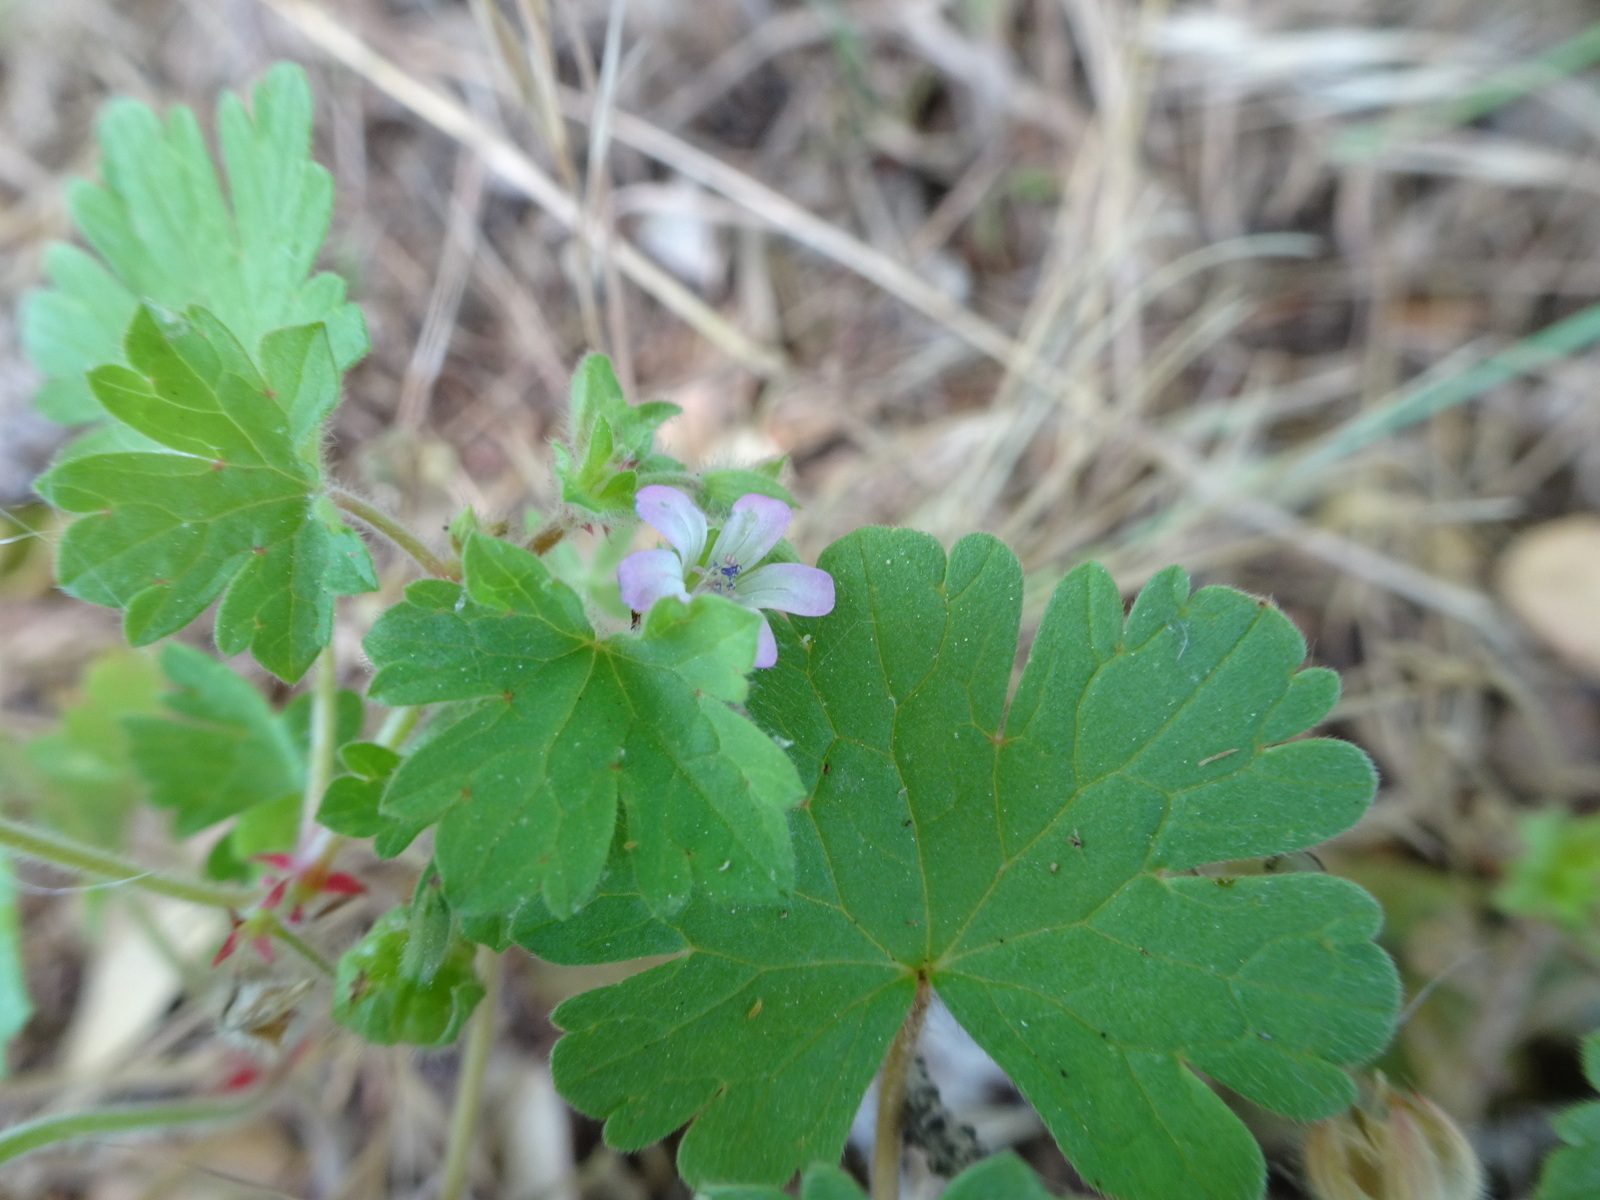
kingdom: Plantae
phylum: Tracheophyta
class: Magnoliopsida
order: Geraniales
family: Geraniaceae
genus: Geranium
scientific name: Geranium rotundifolium
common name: Round-leaved crane's-bill
